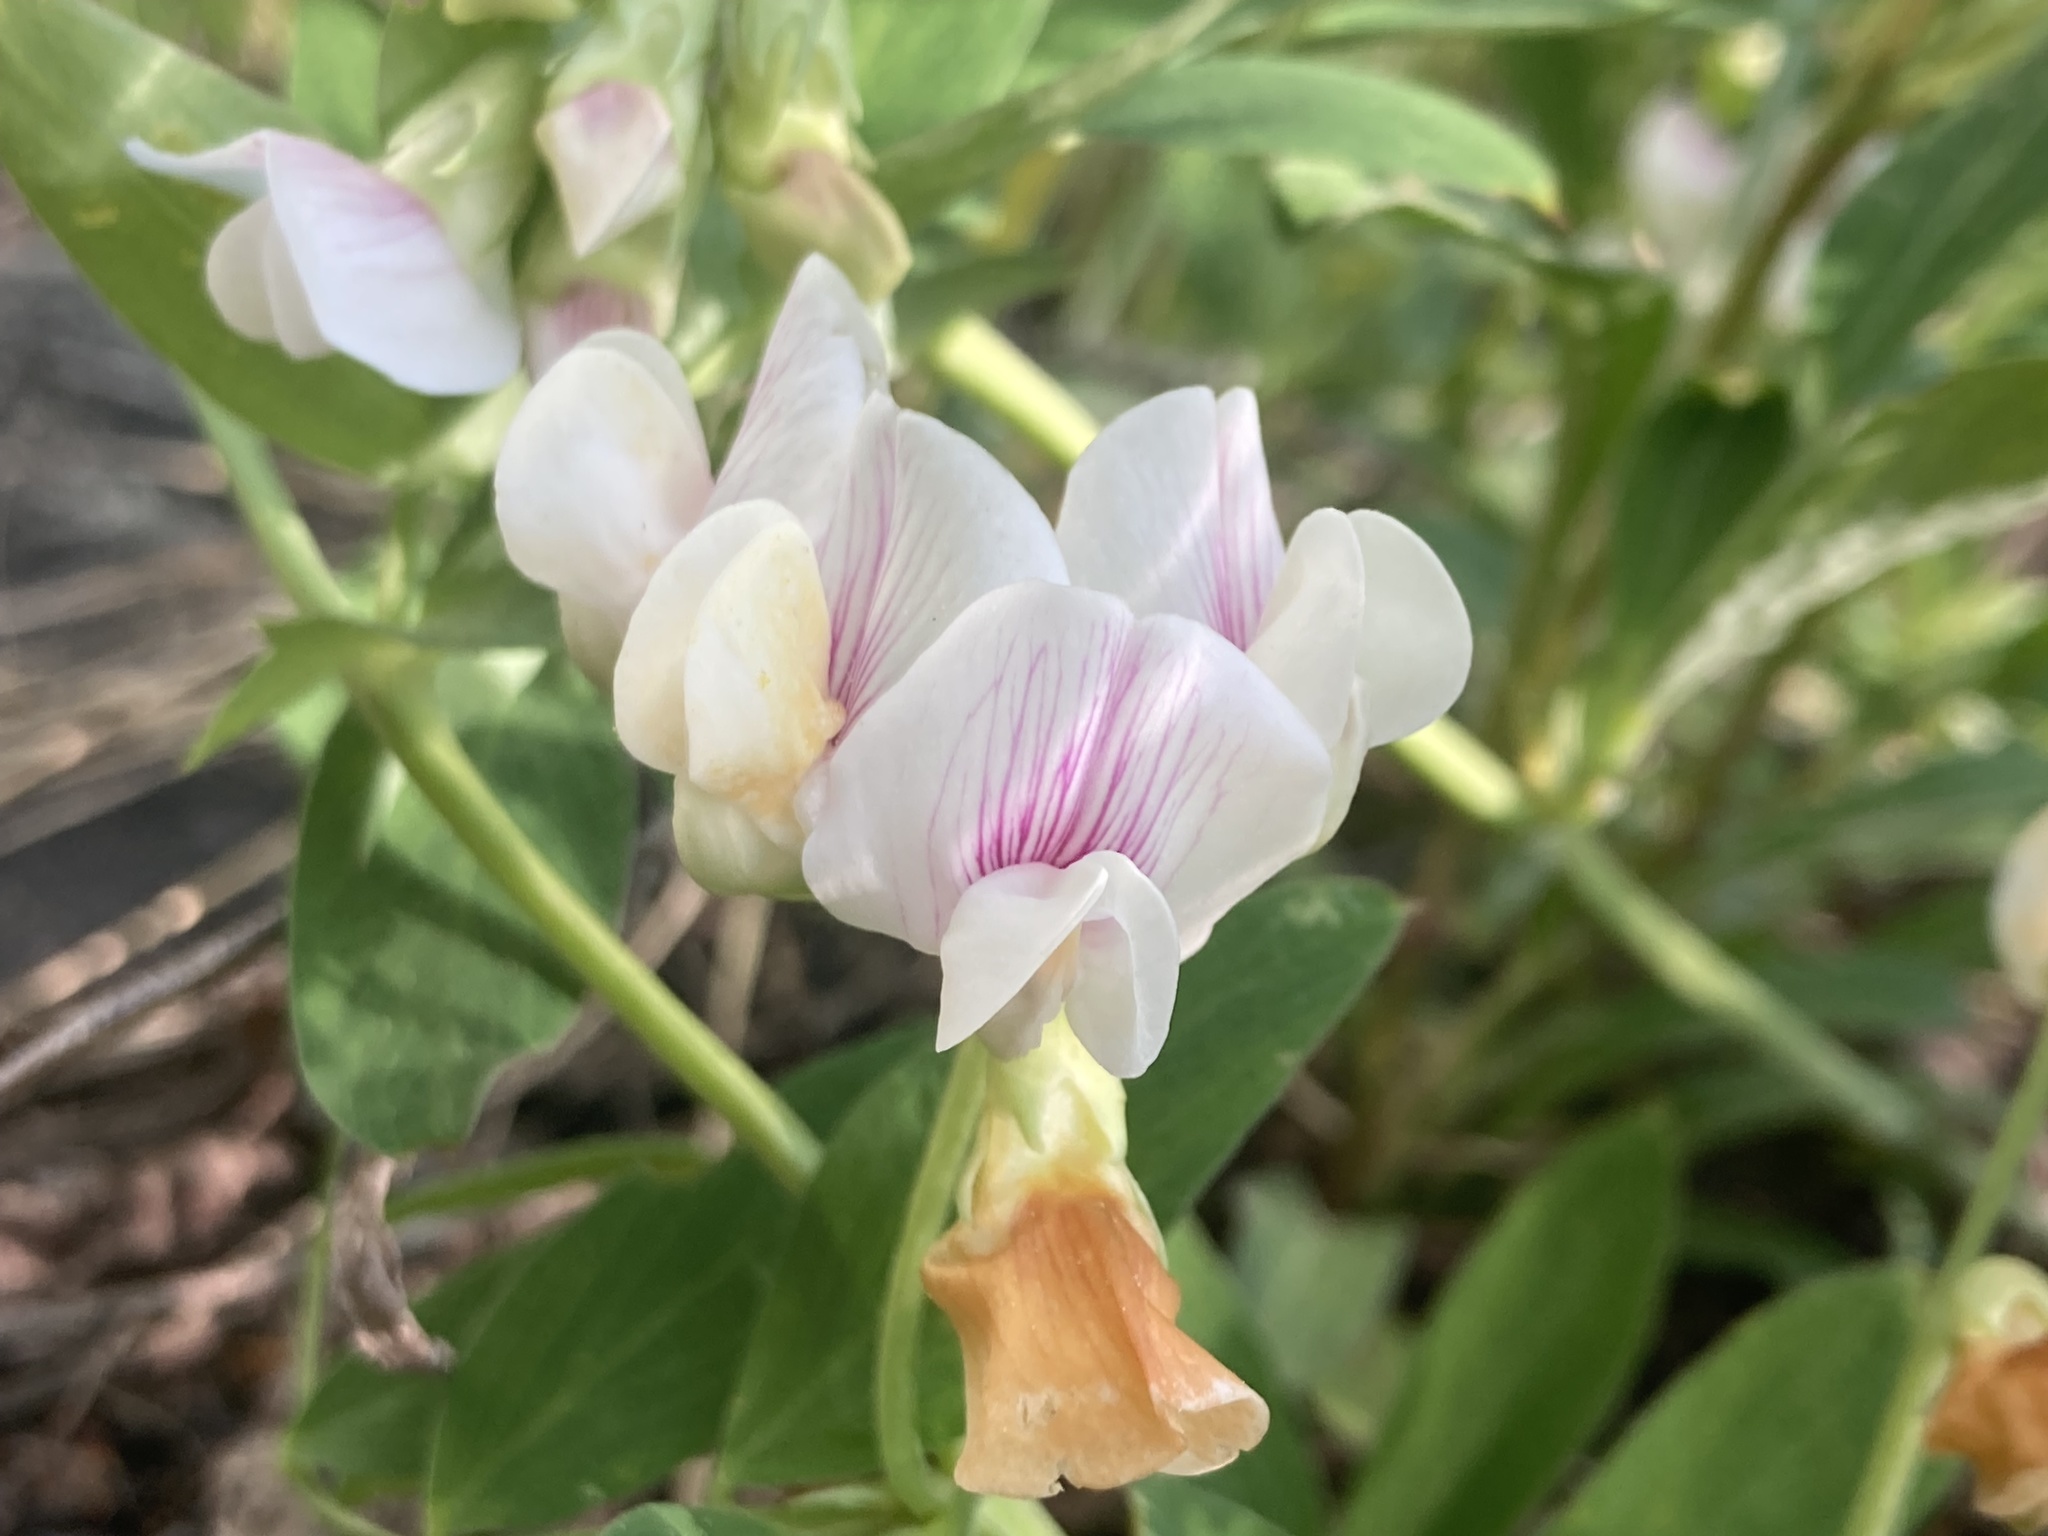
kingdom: Plantae
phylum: Tracheophyta
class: Magnoliopsida
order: Fabales
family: Fabaceae
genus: Lathyrus
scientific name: Lathyrus lanszwertii
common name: Lanszwert's vetchling
